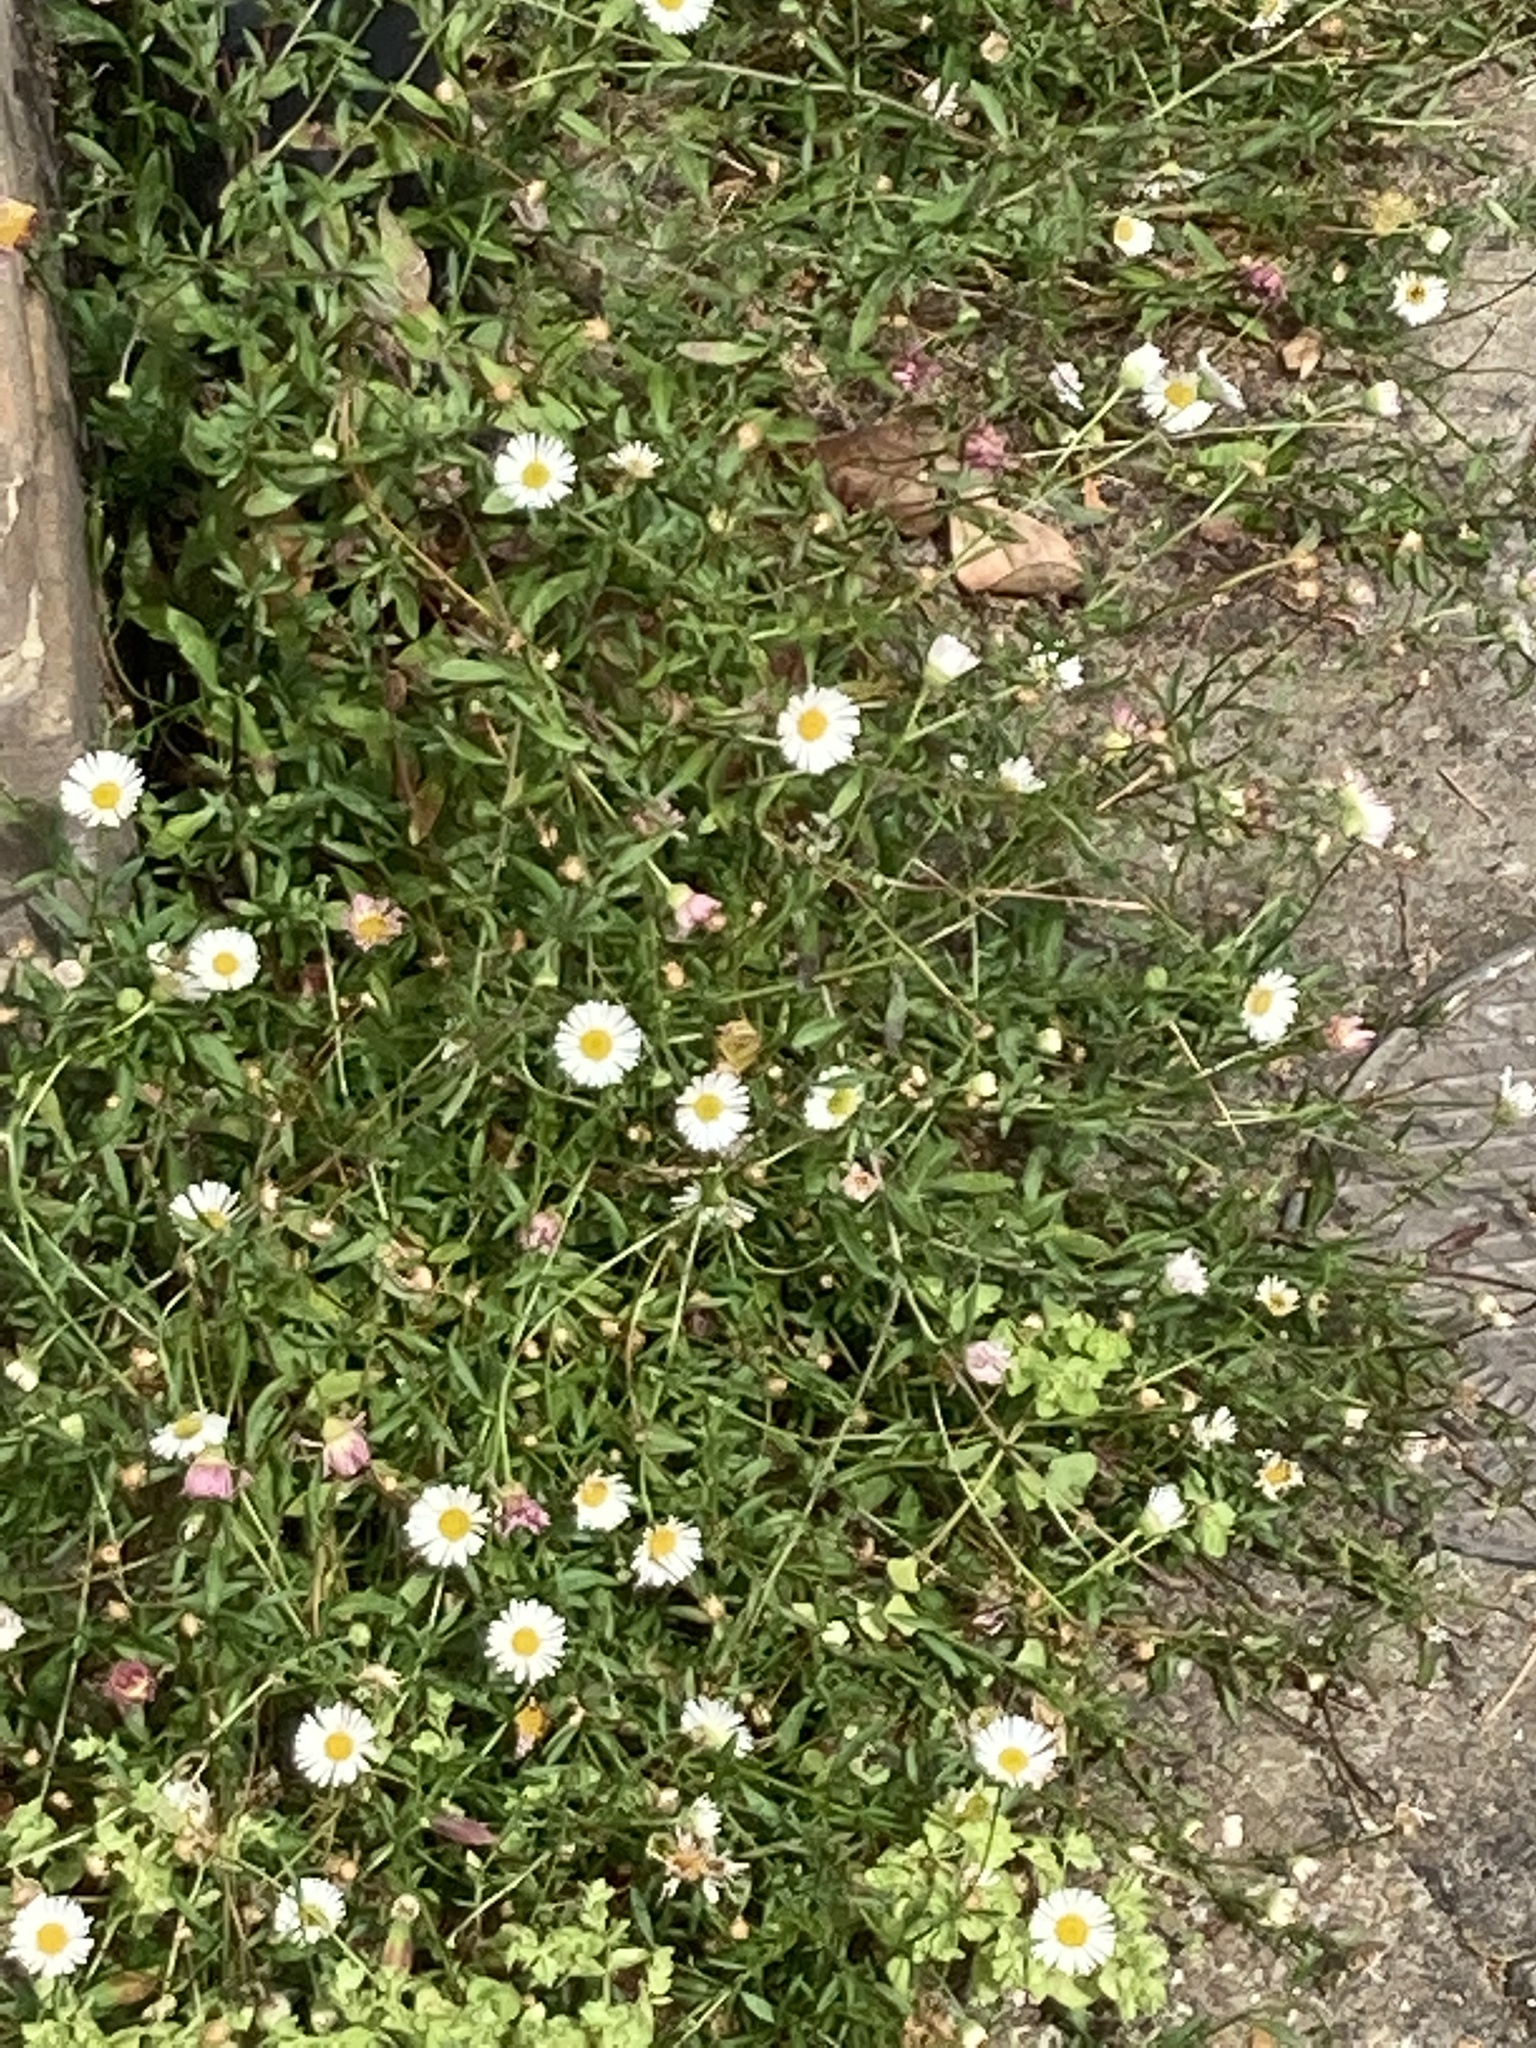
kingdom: Plantae
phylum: Tracheophyta
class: Magnoliopsida
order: Asterales
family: Asteraceae
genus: Erigeron
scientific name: Erigeron karvinskianus
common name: Mexican fleabane
